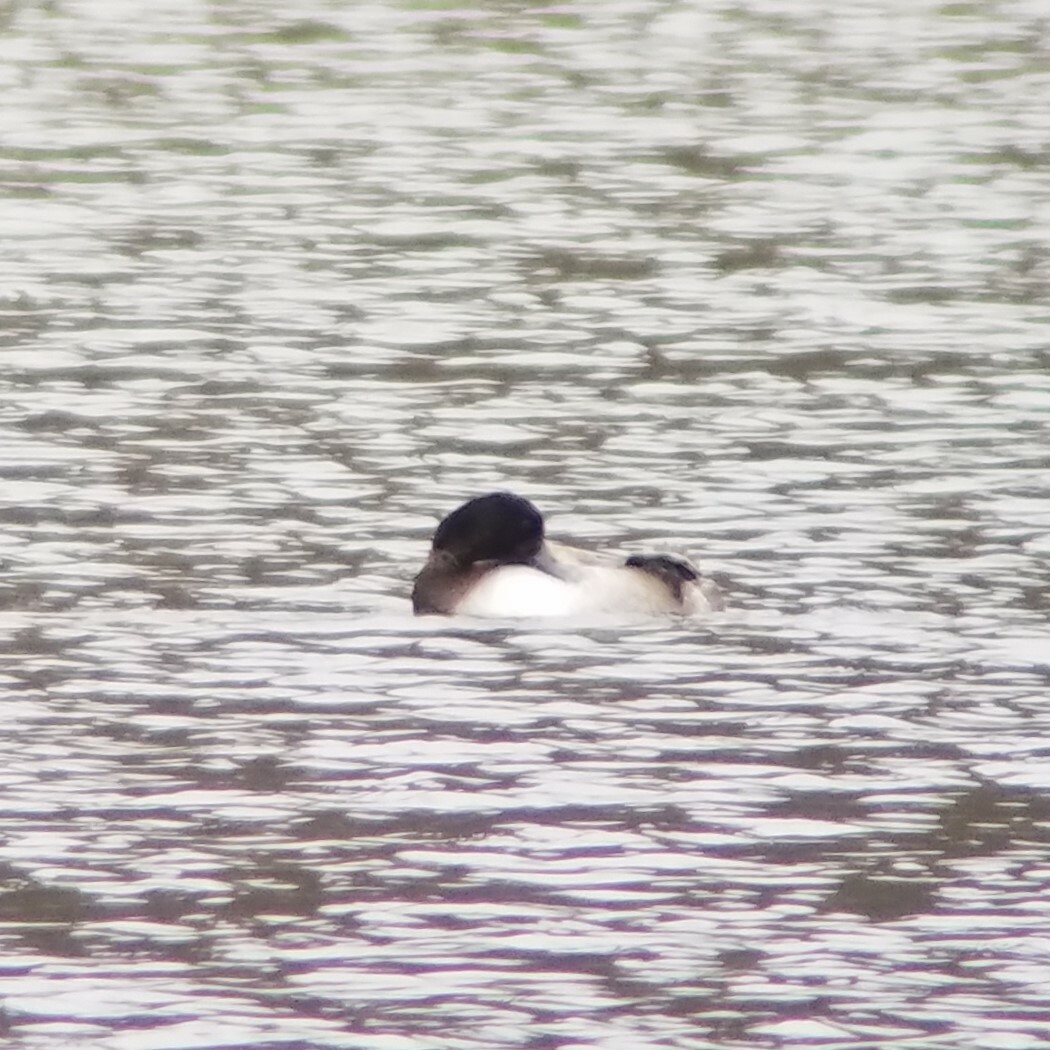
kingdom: Animalia
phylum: Chordata
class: Aves
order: Anseriformes
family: Anatidae
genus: Aythya
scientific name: Aythya affinis
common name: Lesser scaup
